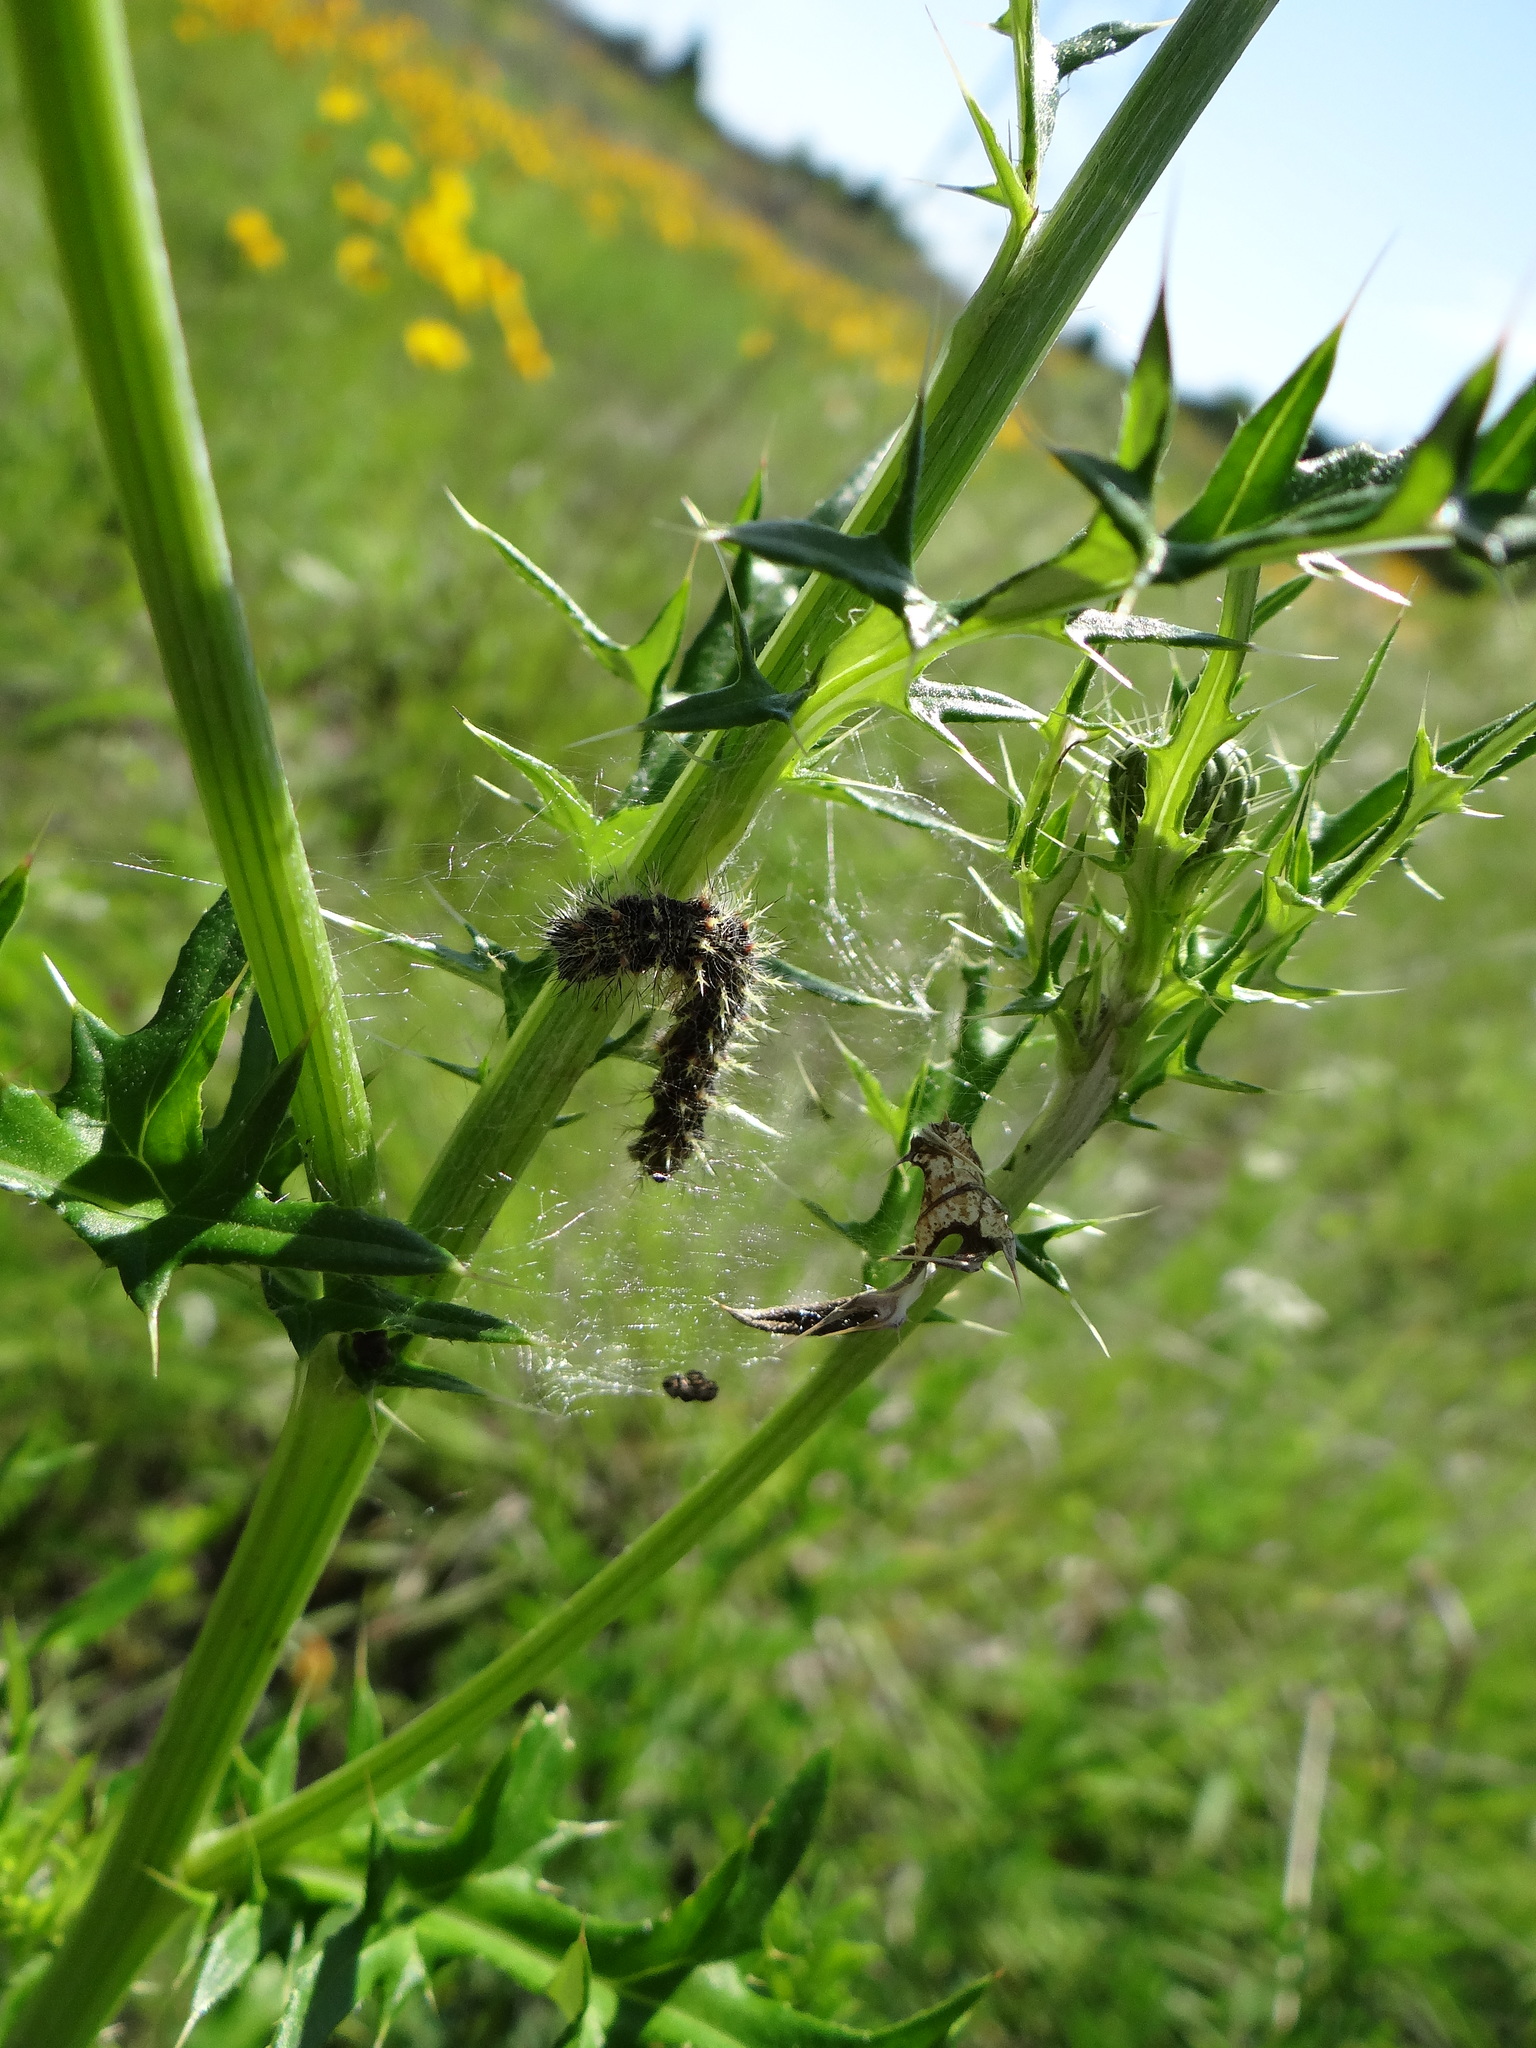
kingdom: Animalia
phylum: Arthropoda
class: Insecta
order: Lepidoptera
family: Nymphalidae
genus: Vanessa
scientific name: Vanessa cardui
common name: Painted lady
